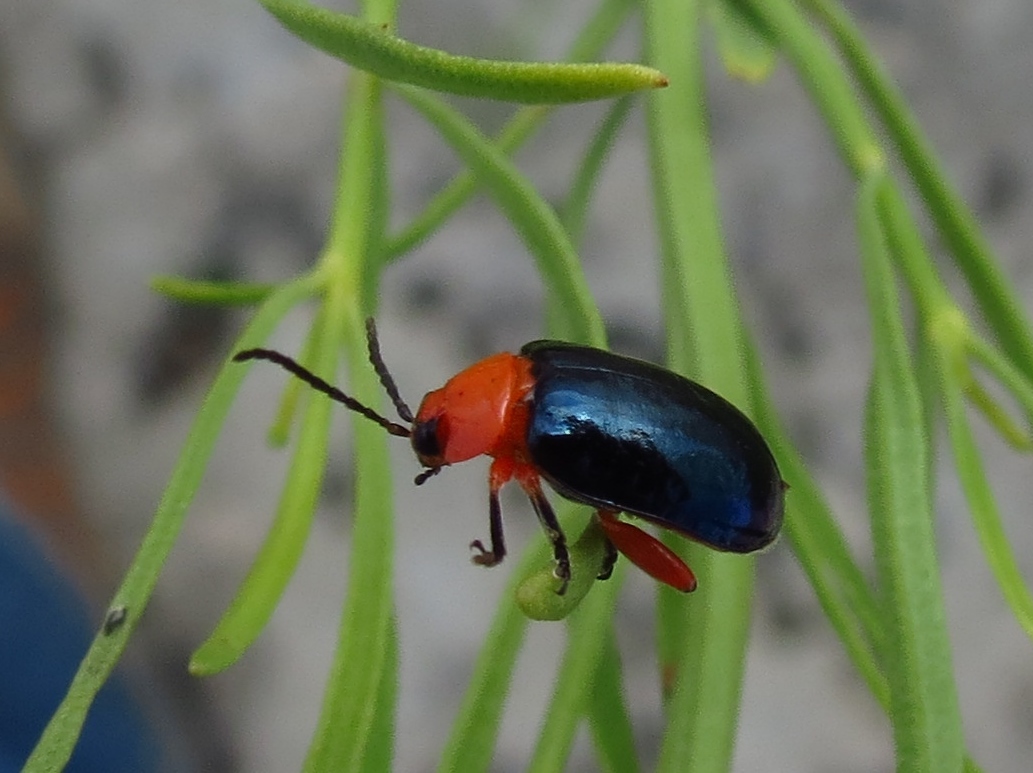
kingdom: Animalia
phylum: Arthropoda
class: Insecta
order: Coleoptera
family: Chrysomelidae
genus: Asphaera
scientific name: Asphaera lustrans
